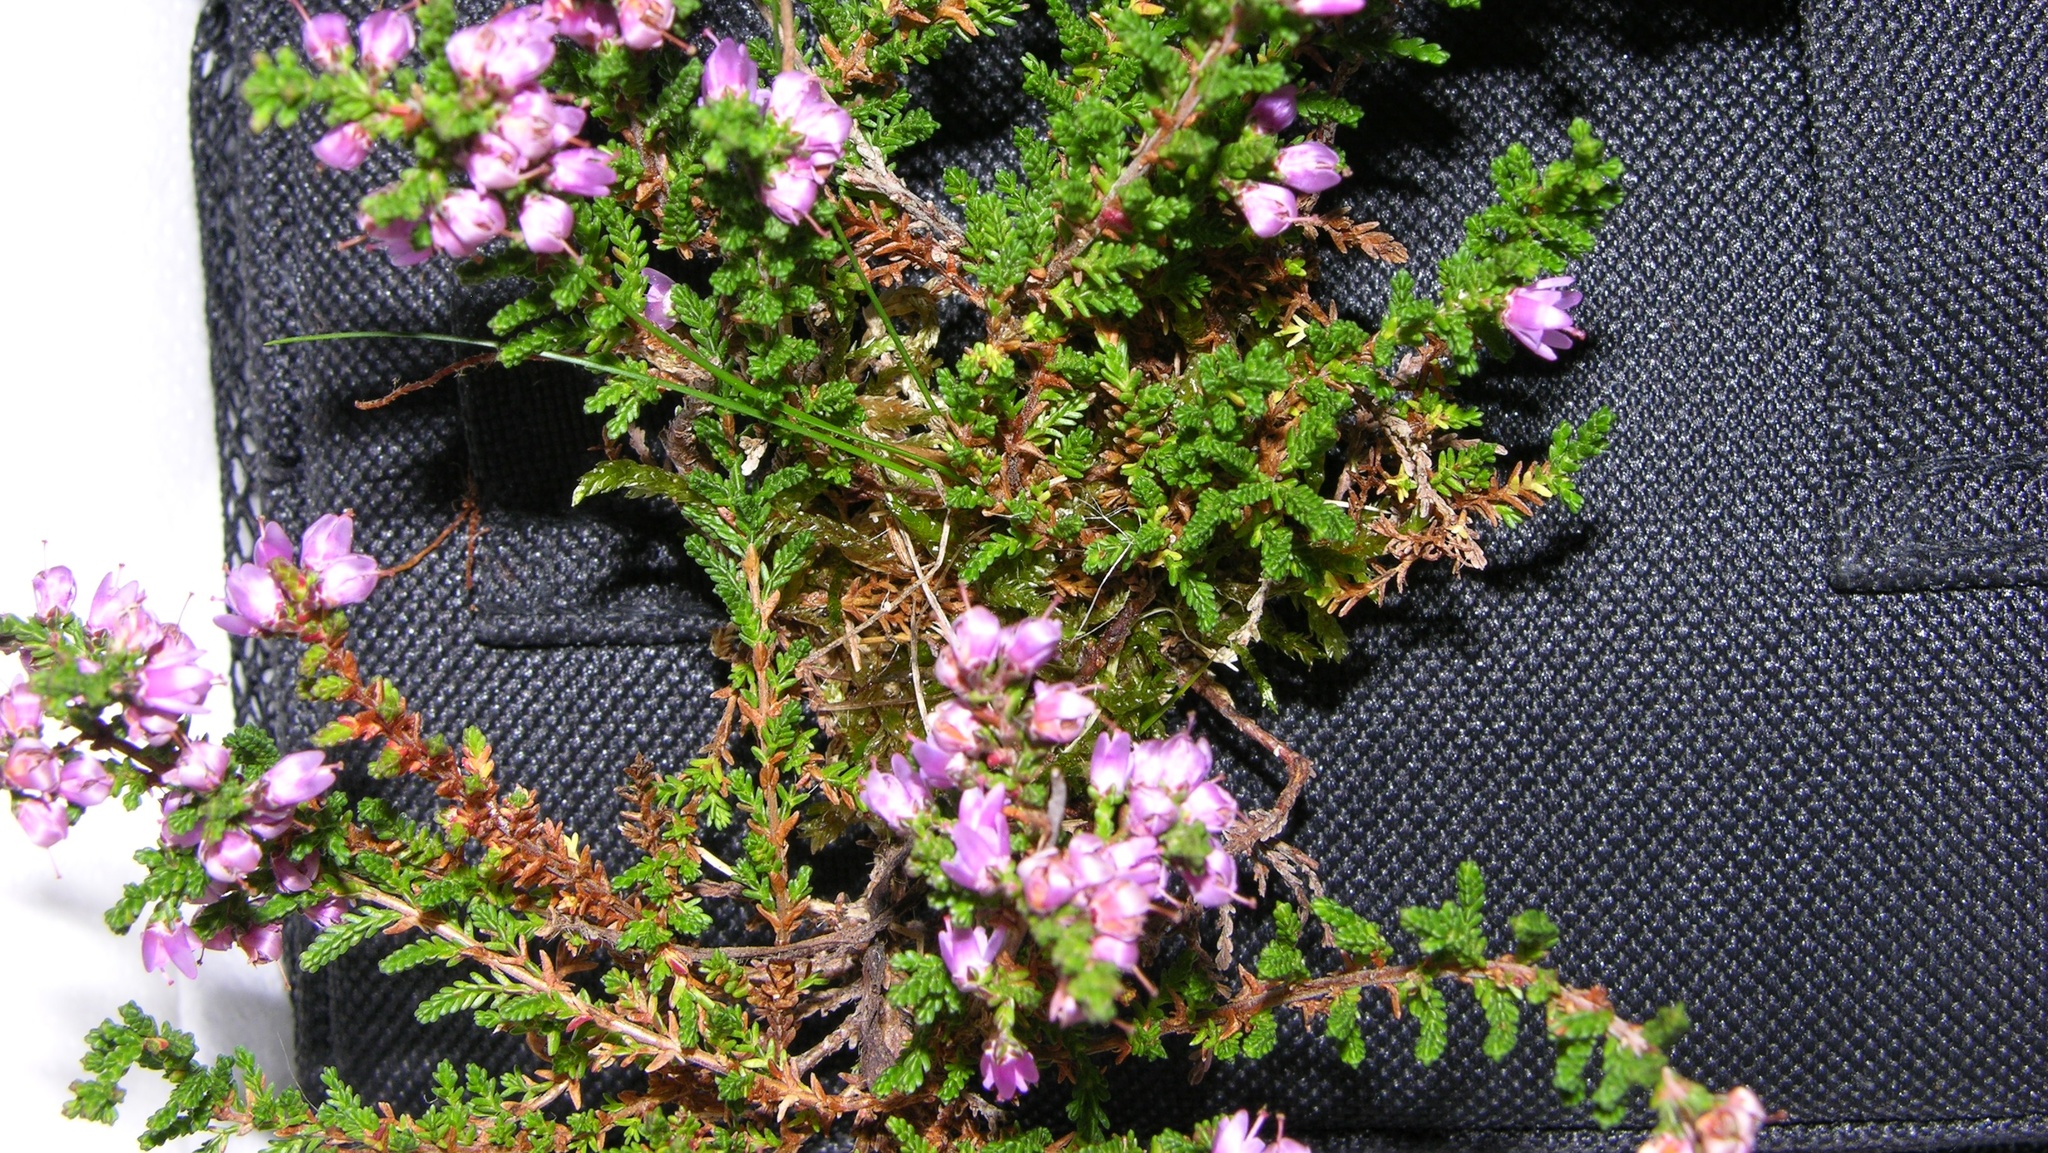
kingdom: Plantae
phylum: Tracheophyta
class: Magnoliopsida
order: Ericales
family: Ericaceae
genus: Calluna
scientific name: Calluna vulgaris
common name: Heather
